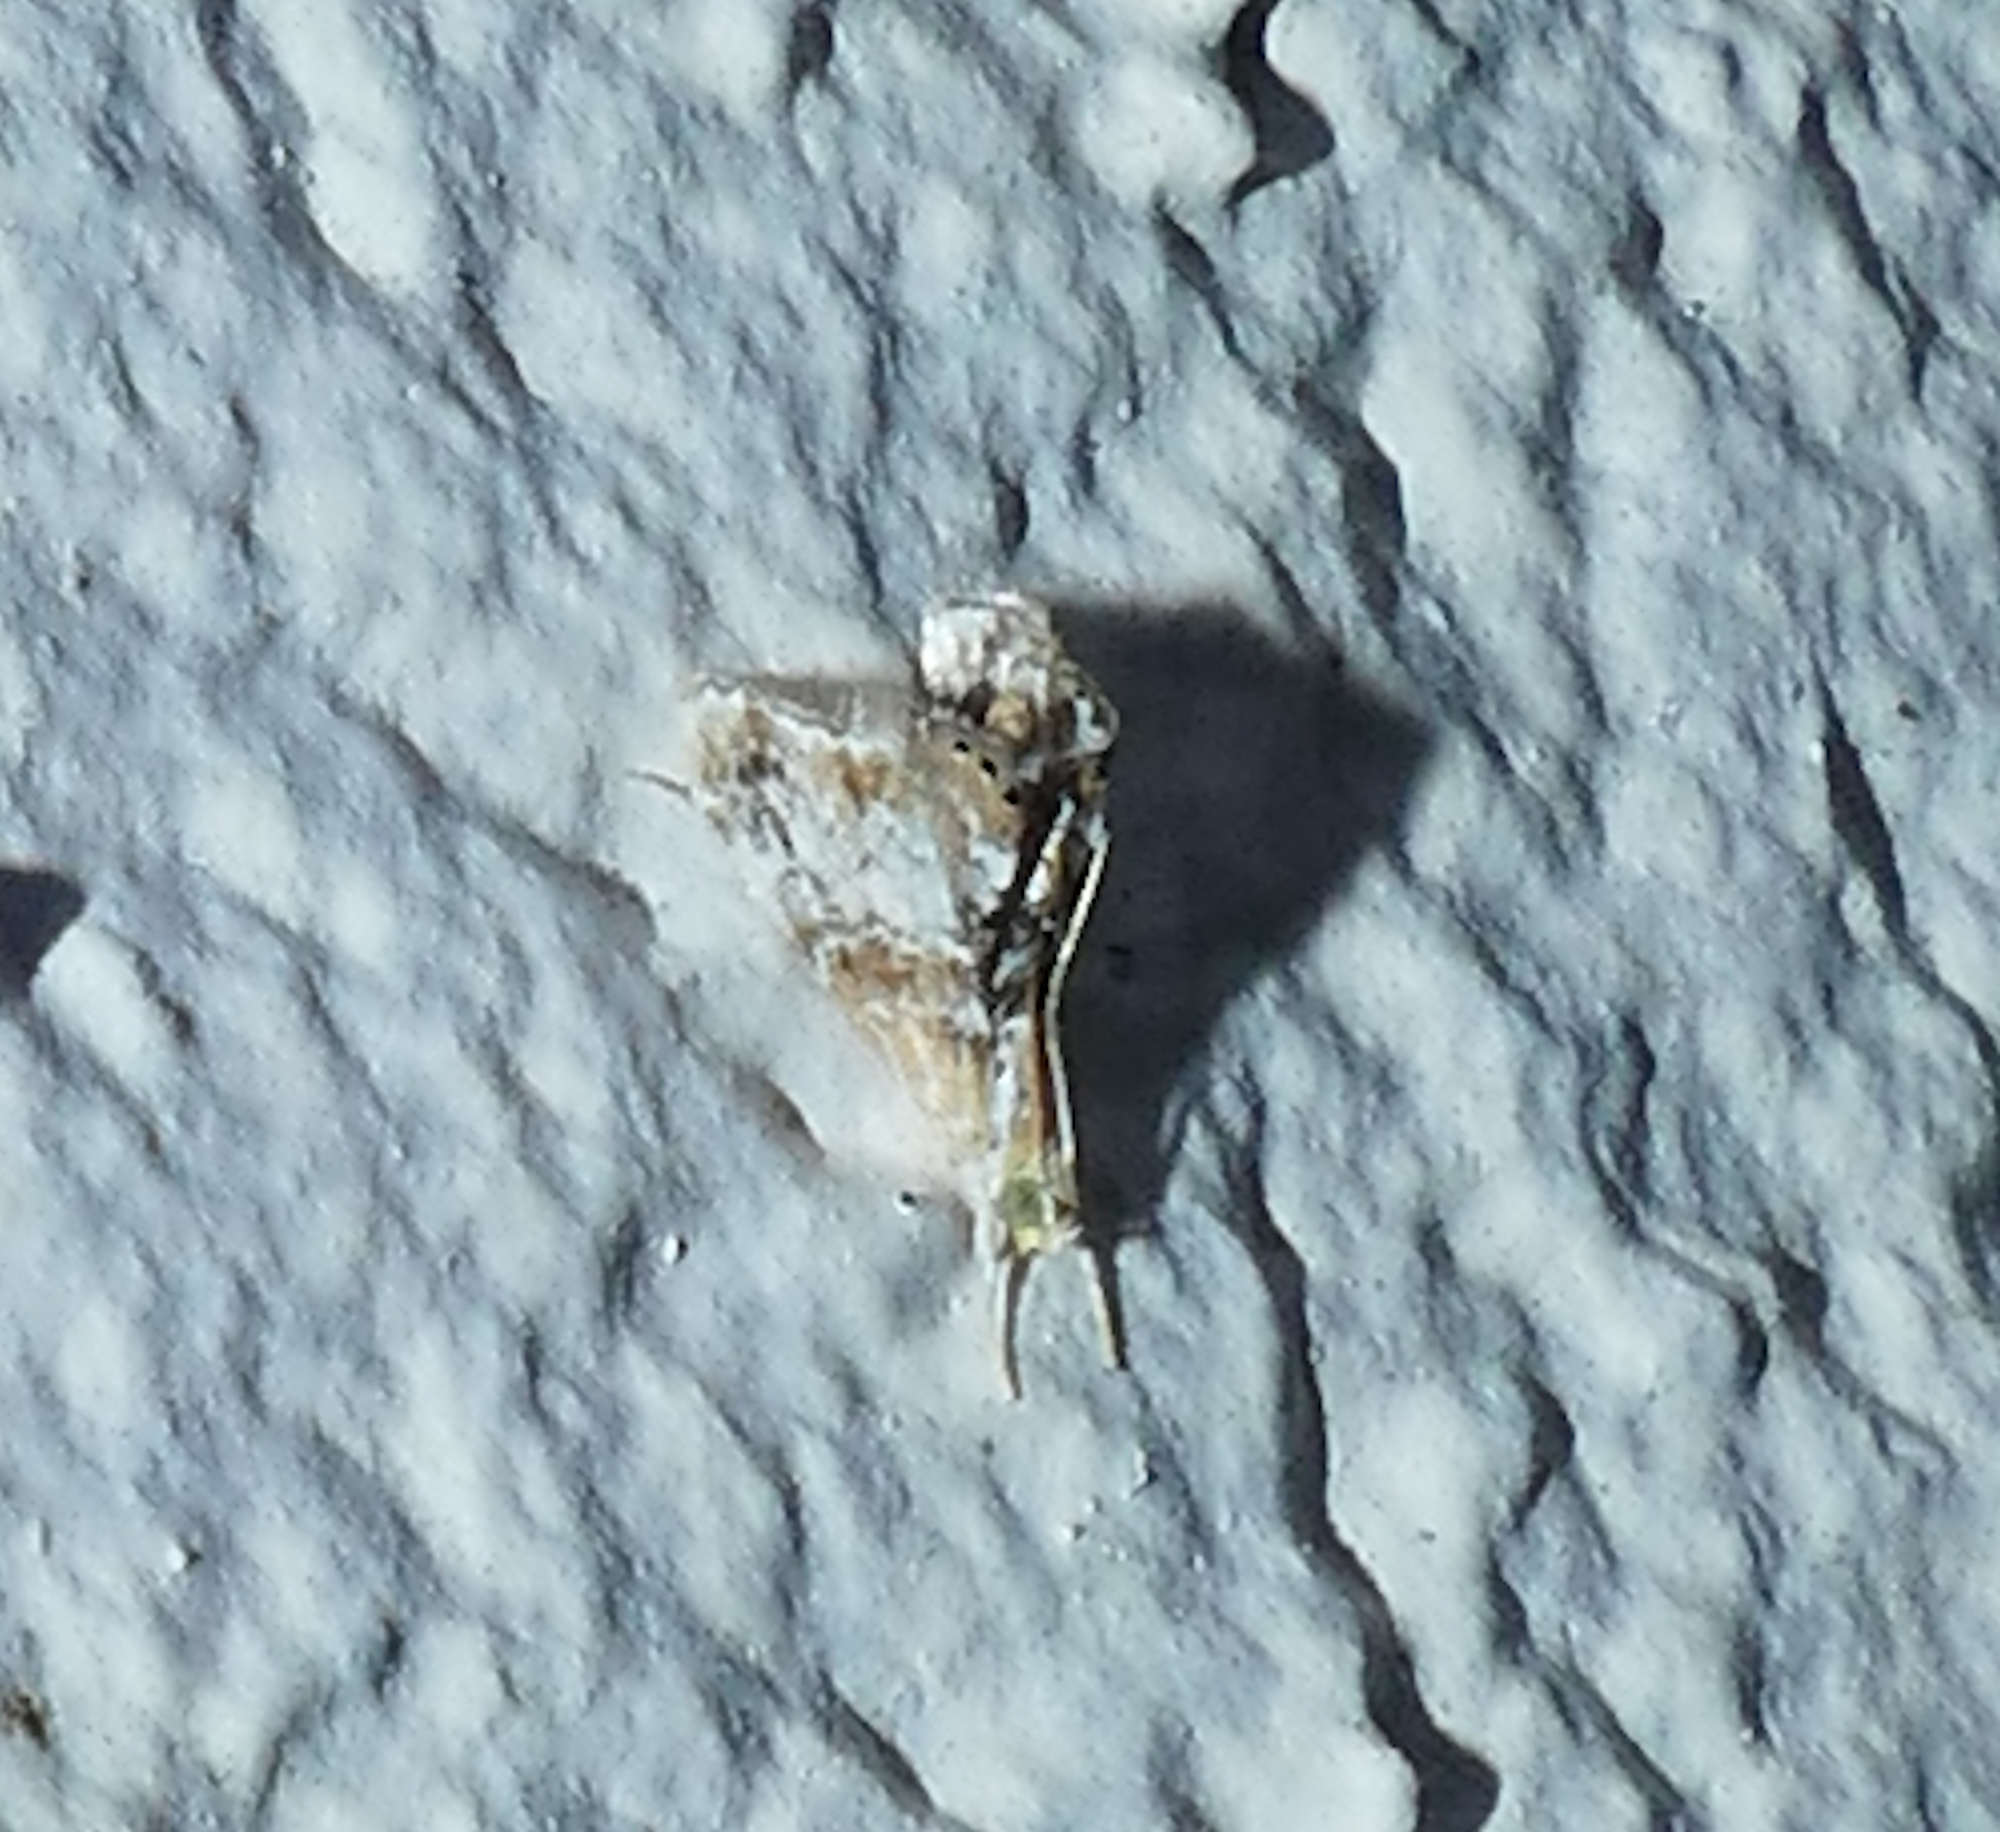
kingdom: Animalia
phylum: Arthropoda
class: Insecta
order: Lepidoptera
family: Crambidae
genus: Dicymolomia
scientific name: Dicymolomia julianalis
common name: Julia's dicymolomia moth
